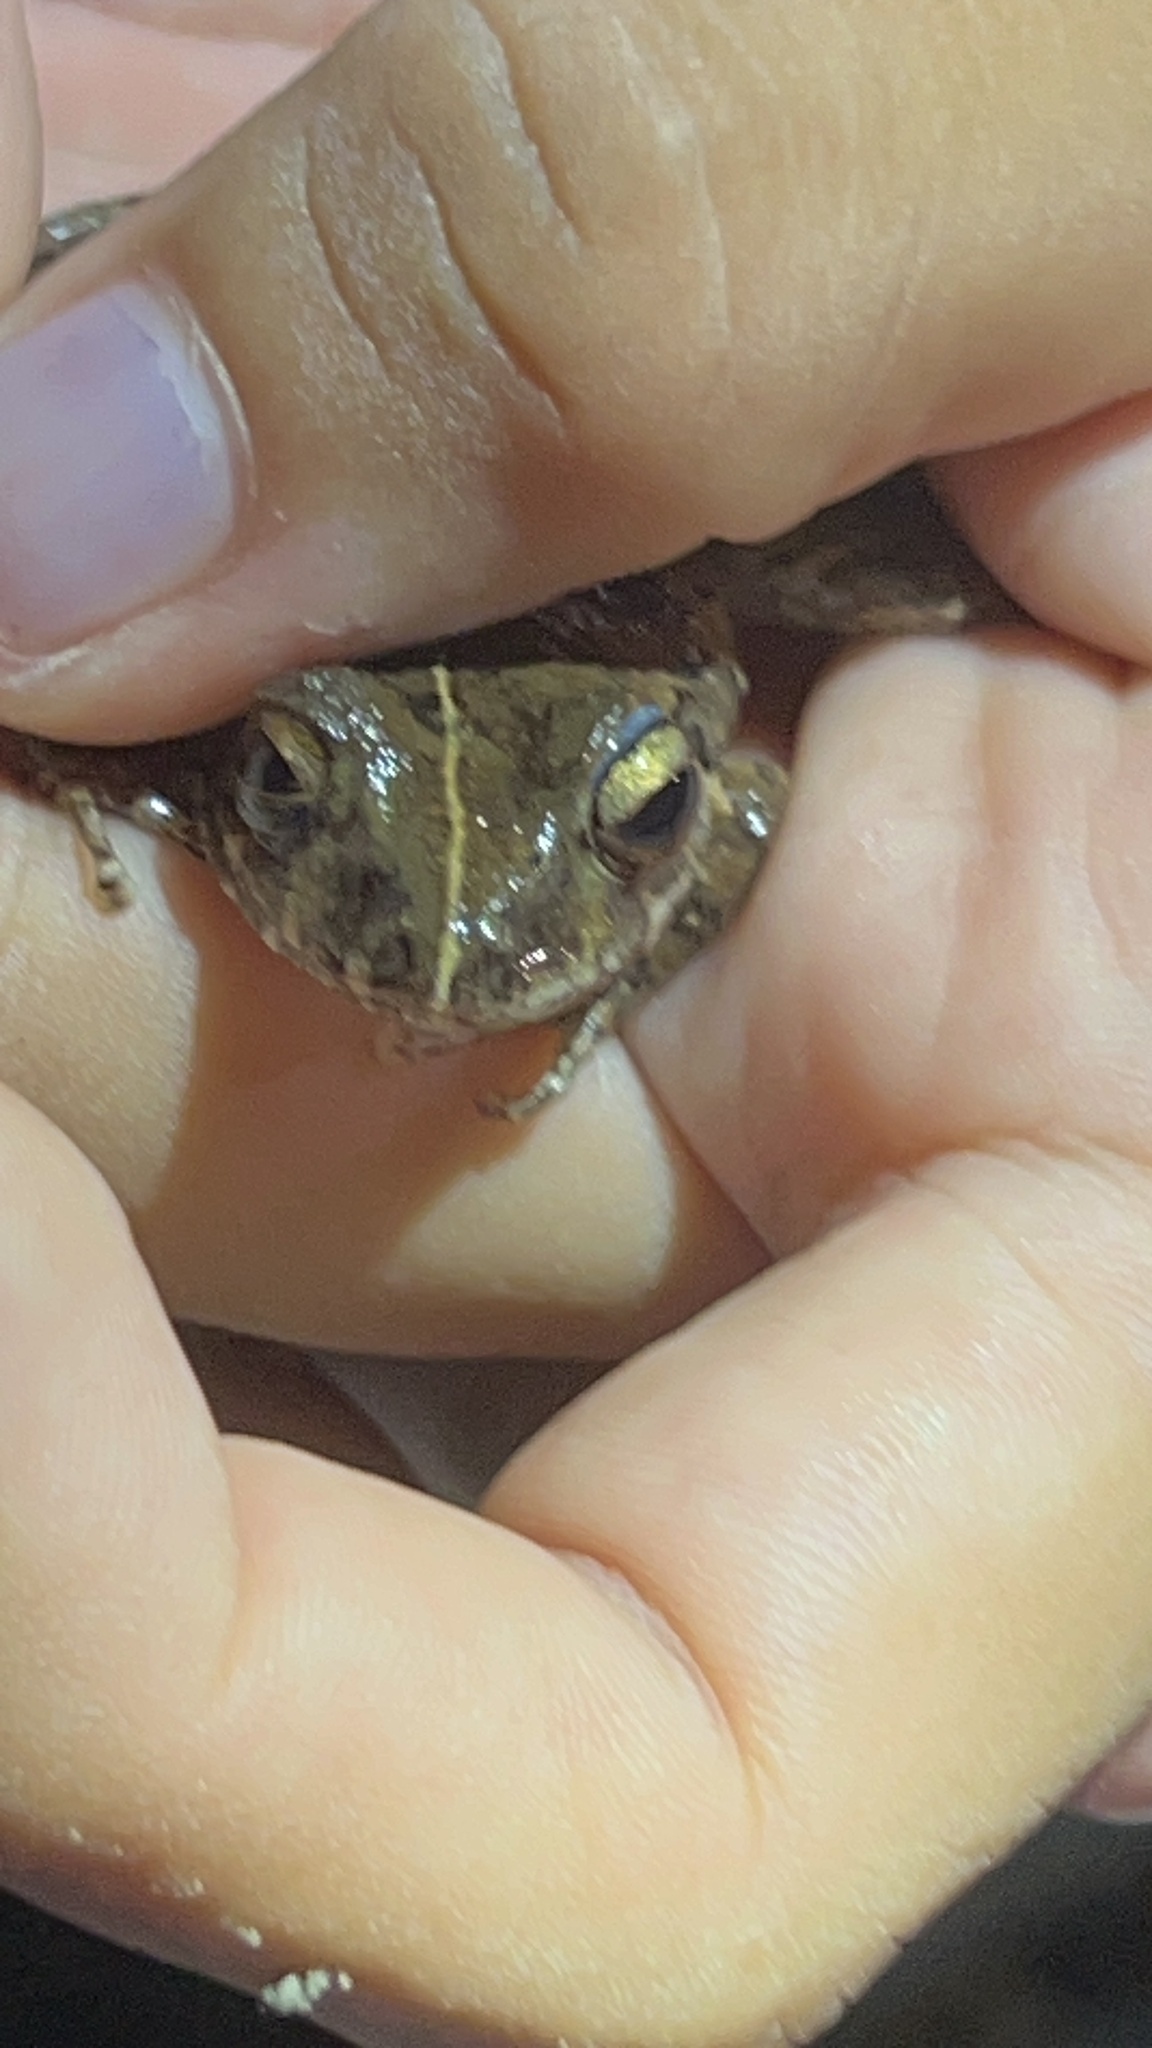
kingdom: Animalia
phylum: Chordata
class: Amphibia
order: Anura
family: Craugastoridae
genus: Craugastor
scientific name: Craugastor sabrinus
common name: Long-legged streamfrog
